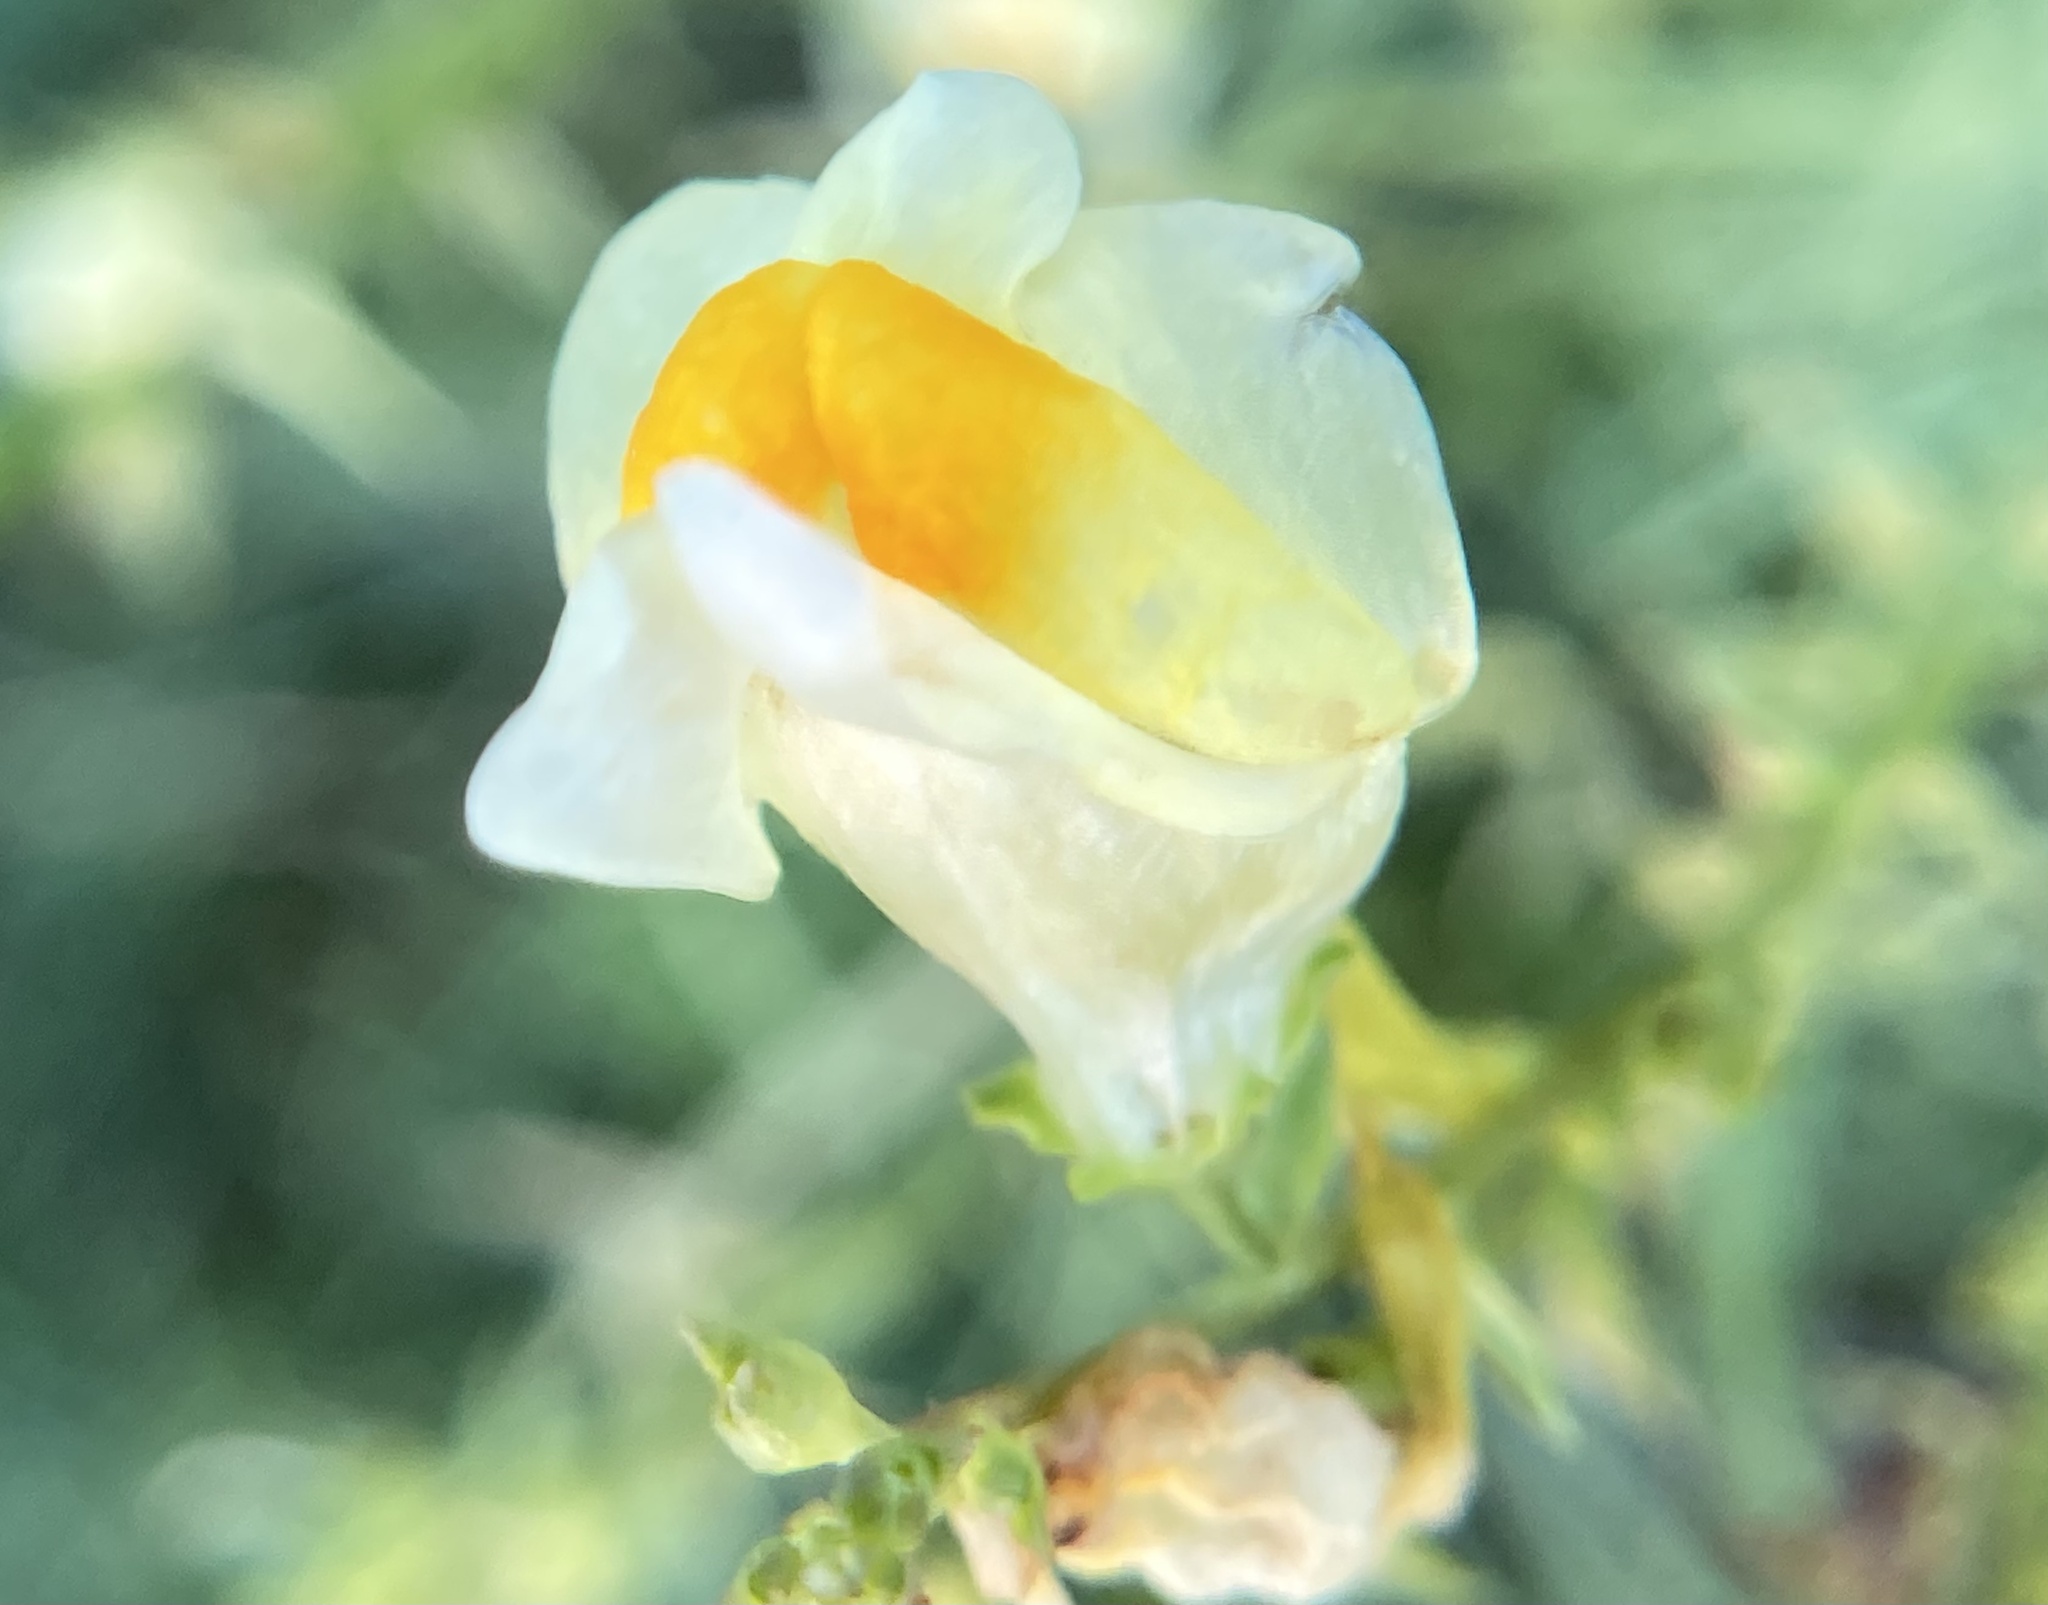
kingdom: Plantae
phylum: Tracheophyta
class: Magnoliopsida
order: Lamiales
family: Plantaginaceae
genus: Linaria
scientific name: Linaria vulgaris
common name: Butter and eggs
